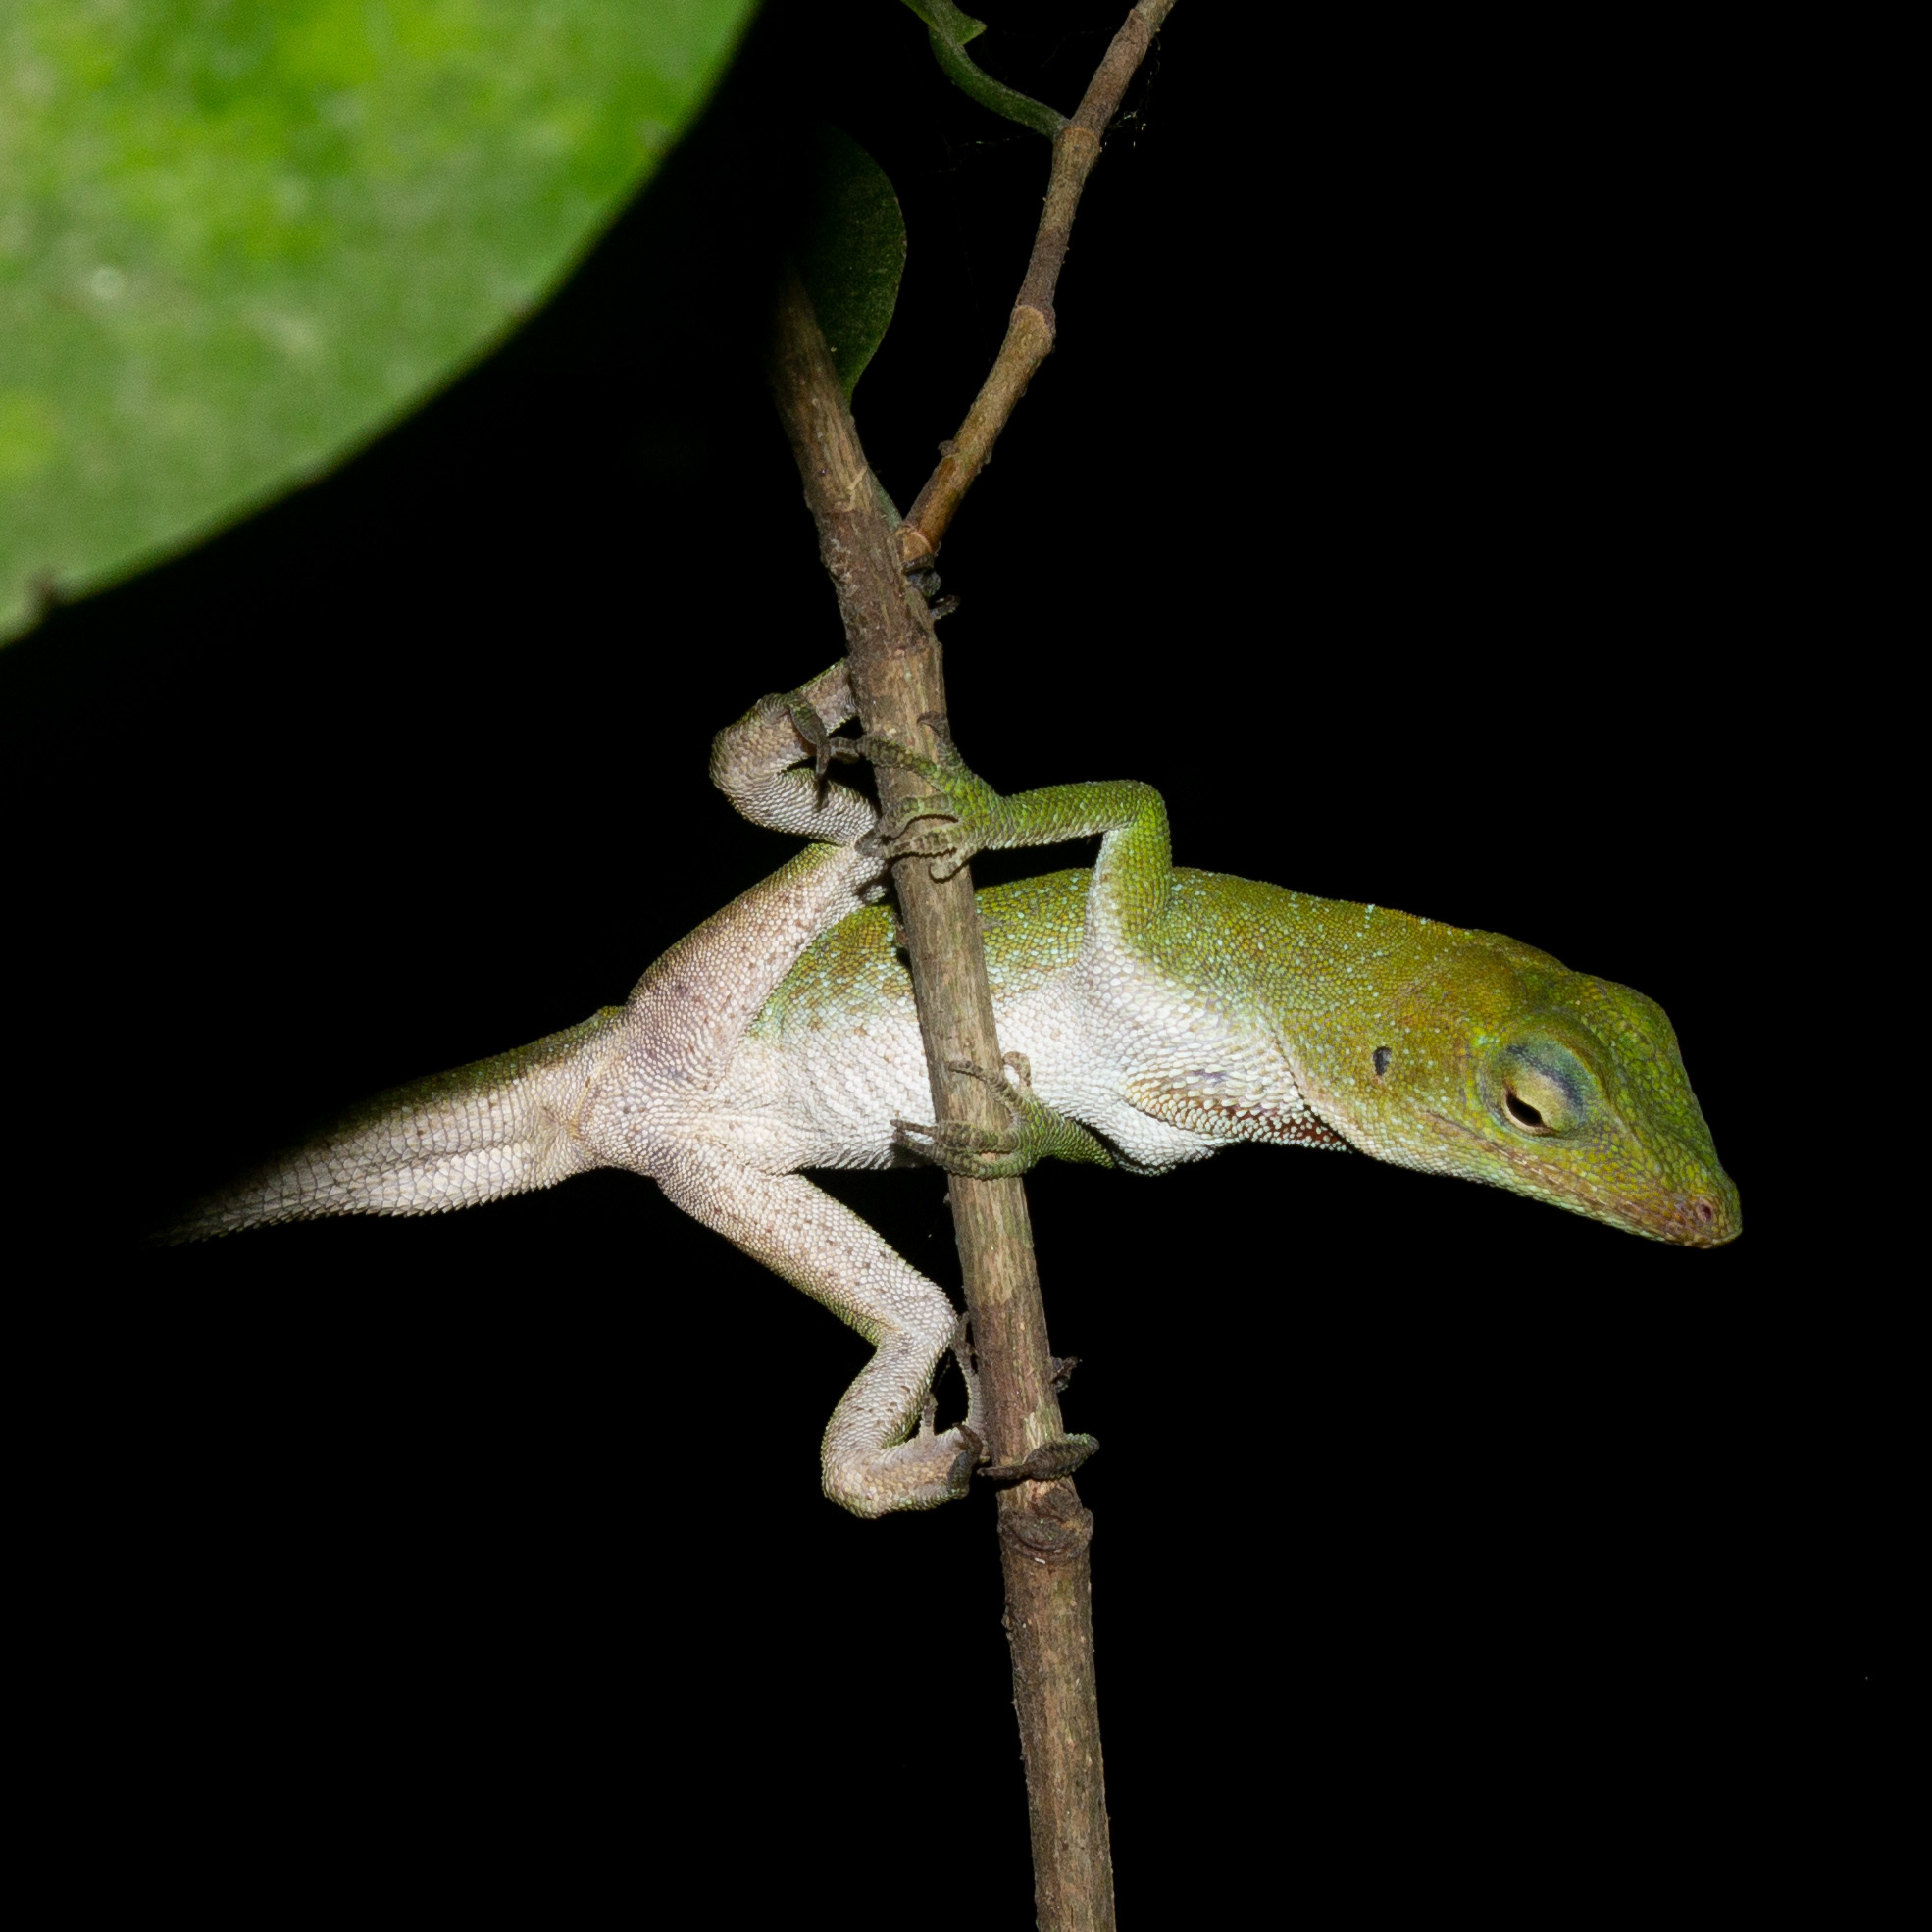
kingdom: Animalia
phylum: Chordata
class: Squamata
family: Dactyloidae
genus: Anolis
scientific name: Anolis biporcatus
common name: Giant green anole
